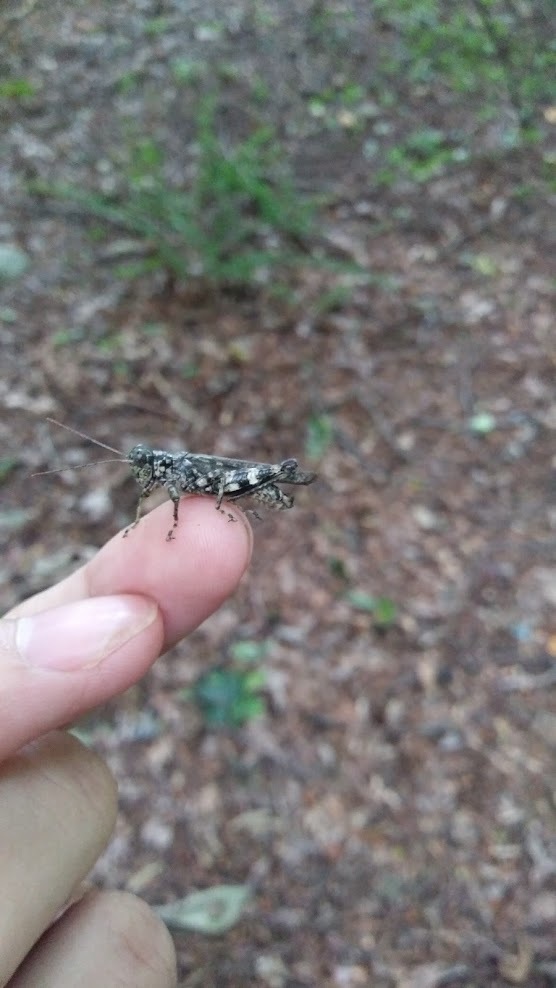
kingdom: Animalia
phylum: Arthropoda
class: Insecta
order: Orthoptera
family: Acrididae
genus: Melanoplus
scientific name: Melanoplus punctulatus
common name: Pine-tree spur-throat grasshopper
